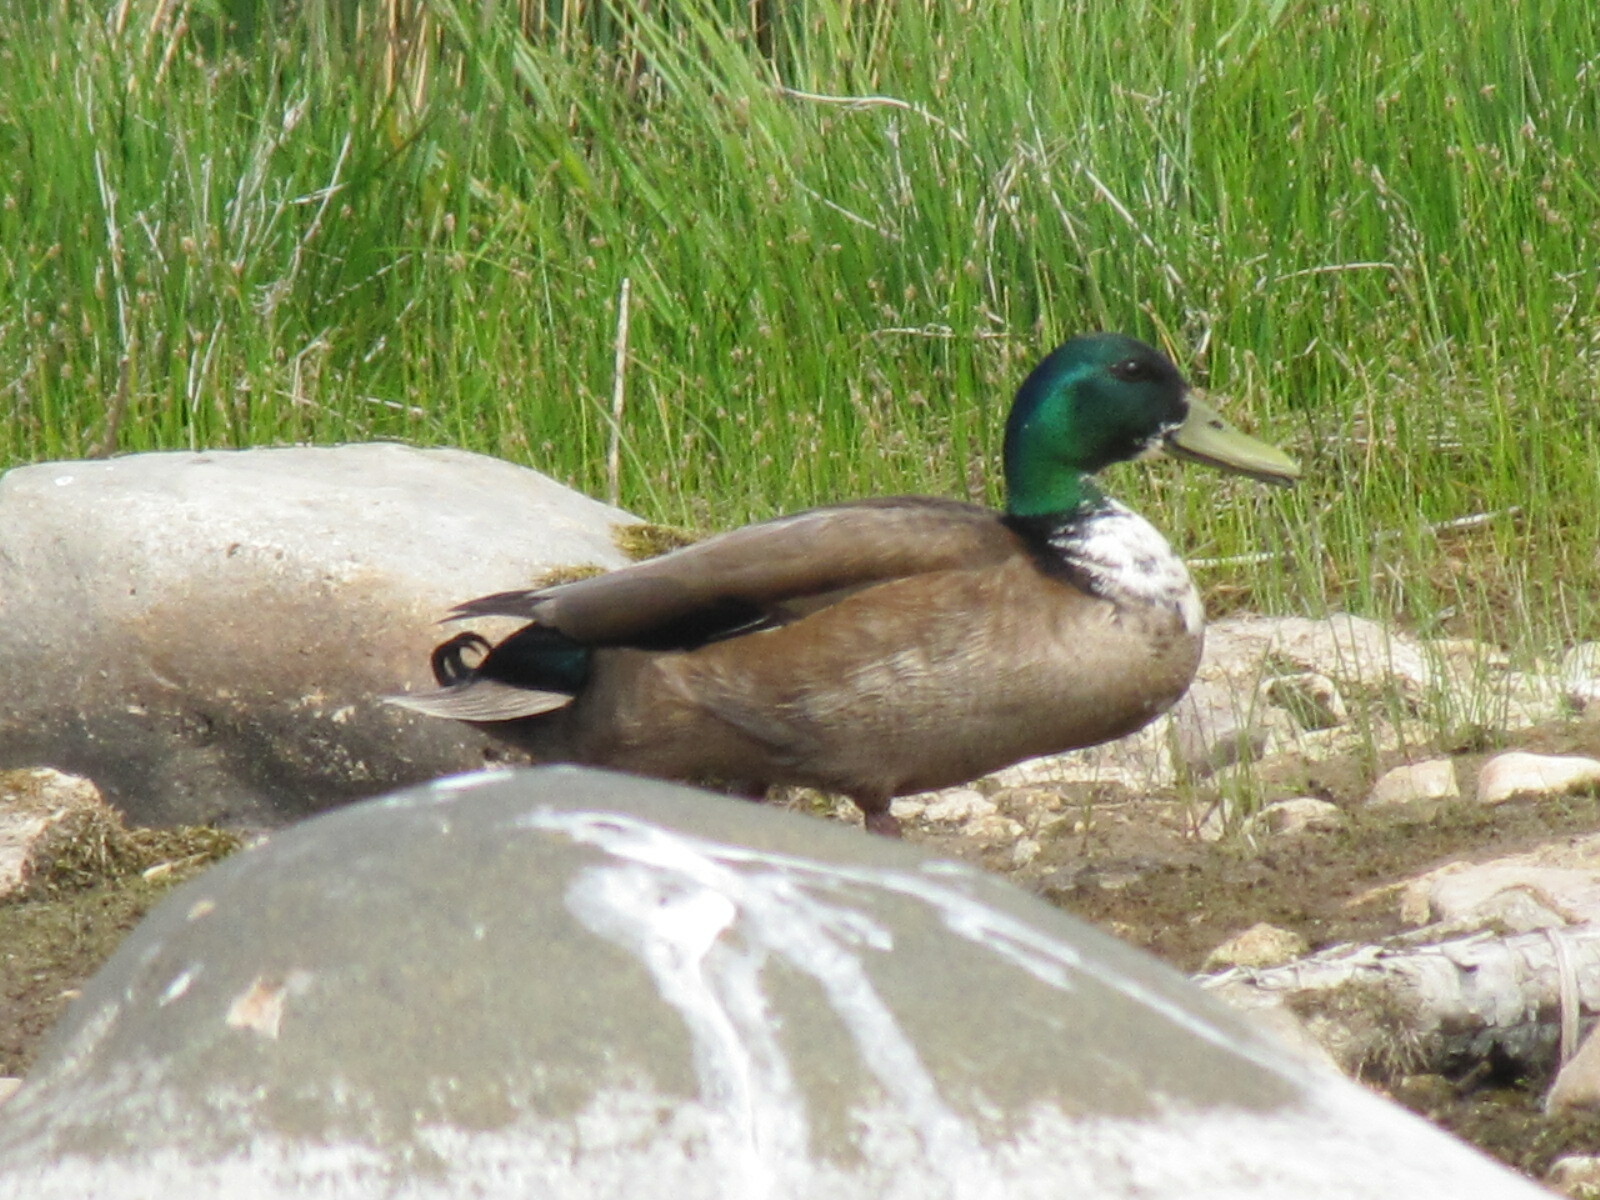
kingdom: Animalia
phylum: Chordata
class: Aves
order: Anseriformes
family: Anatidae
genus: Anas
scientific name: Anas platyrhynchos
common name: Mallard
